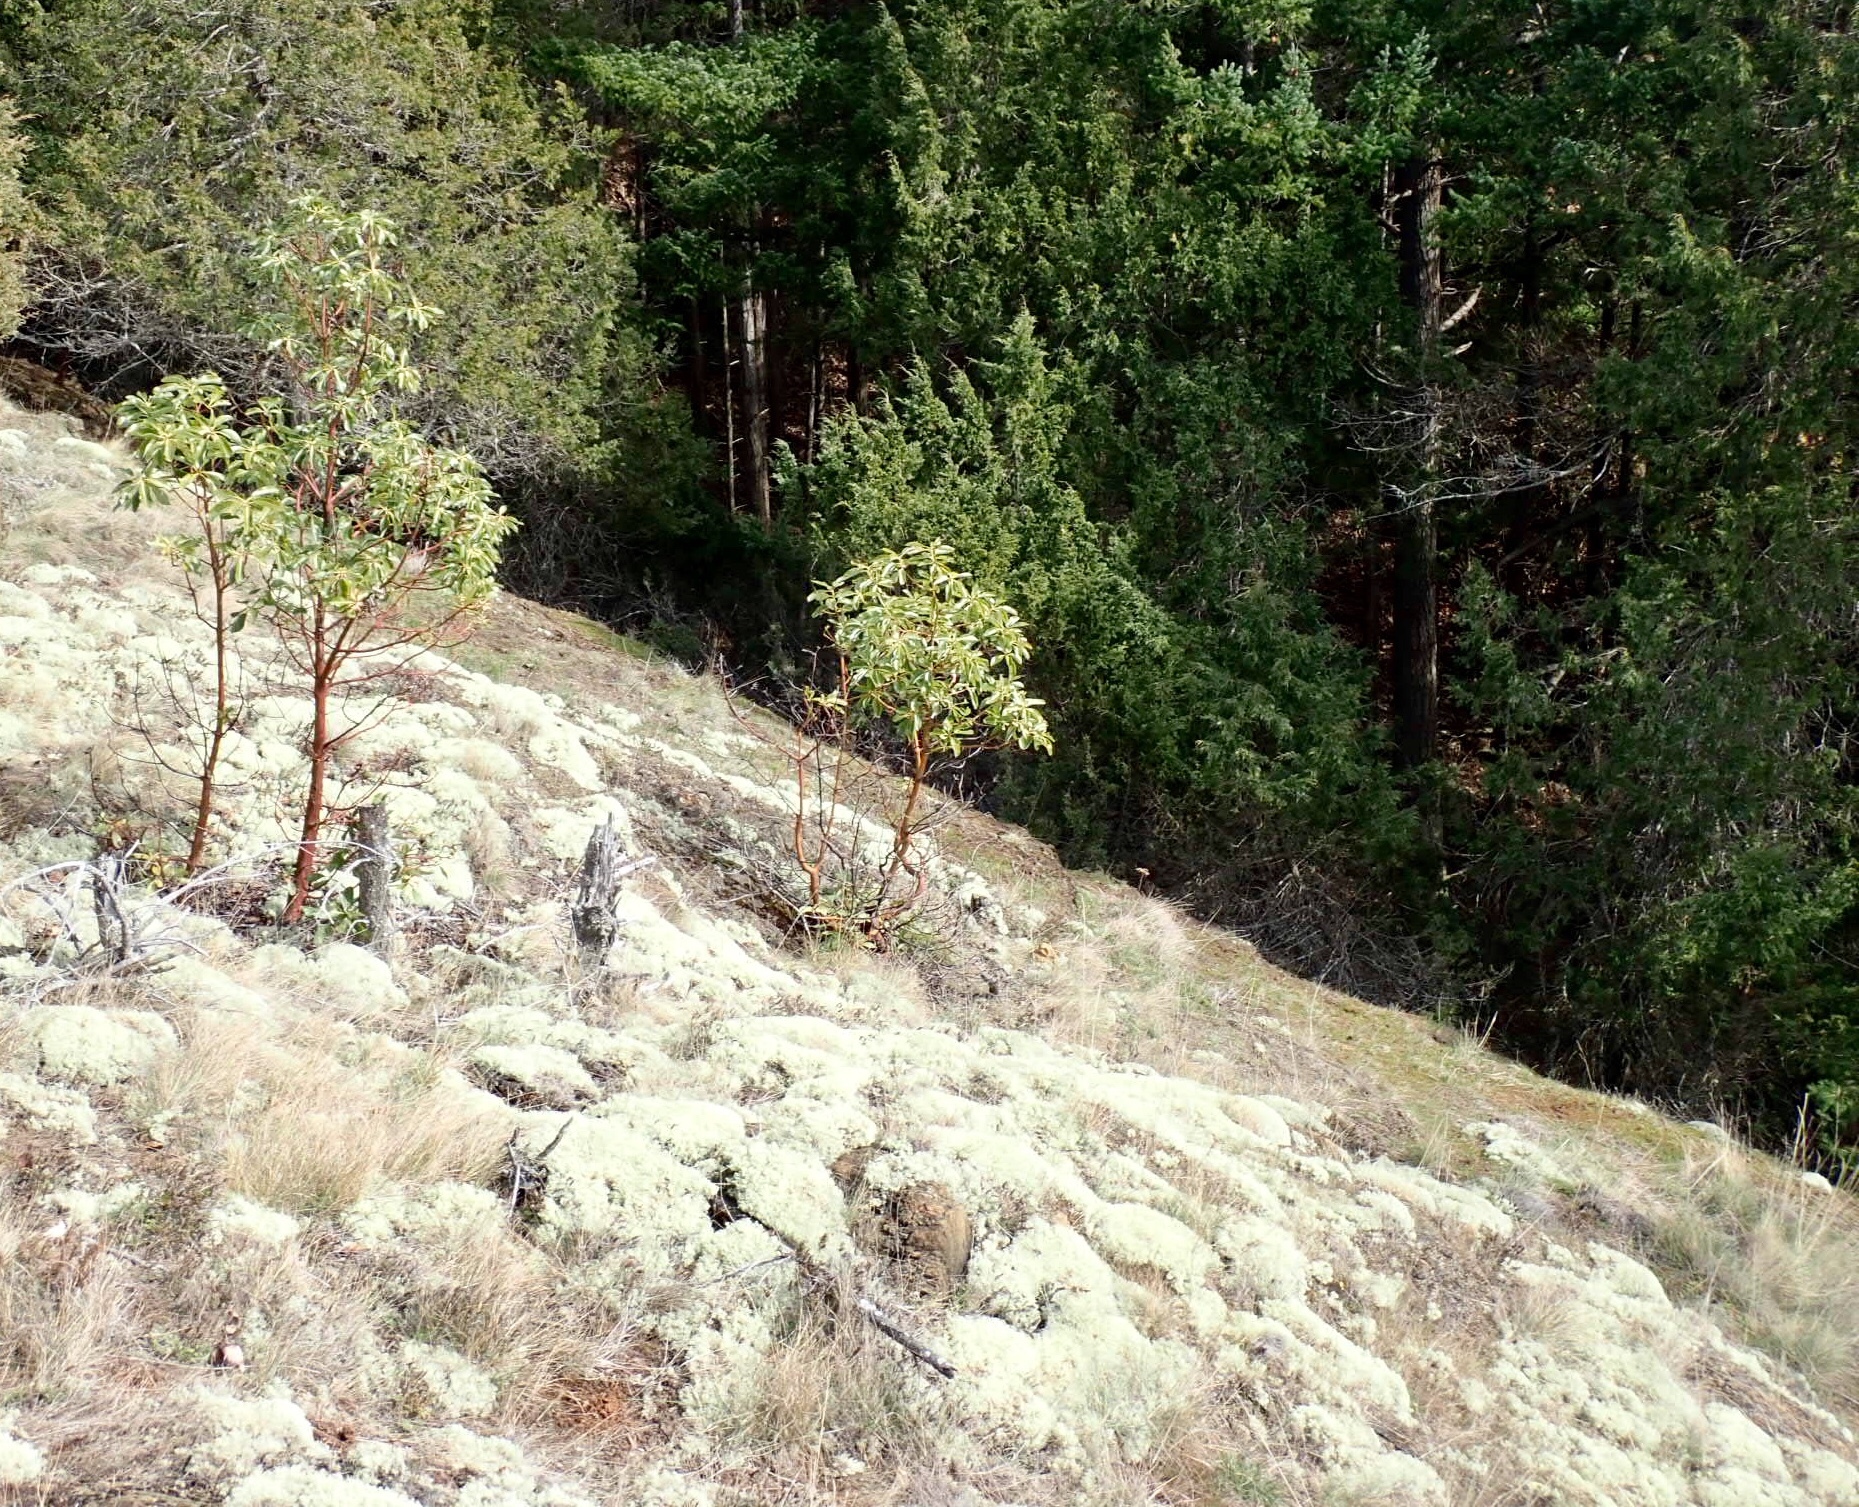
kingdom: Plantae
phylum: Tracheophyta
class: Magnoliopsida
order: Ericales
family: Ericaceae
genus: Arbutus
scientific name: Arbutus menziesii
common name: Pacific madrone
